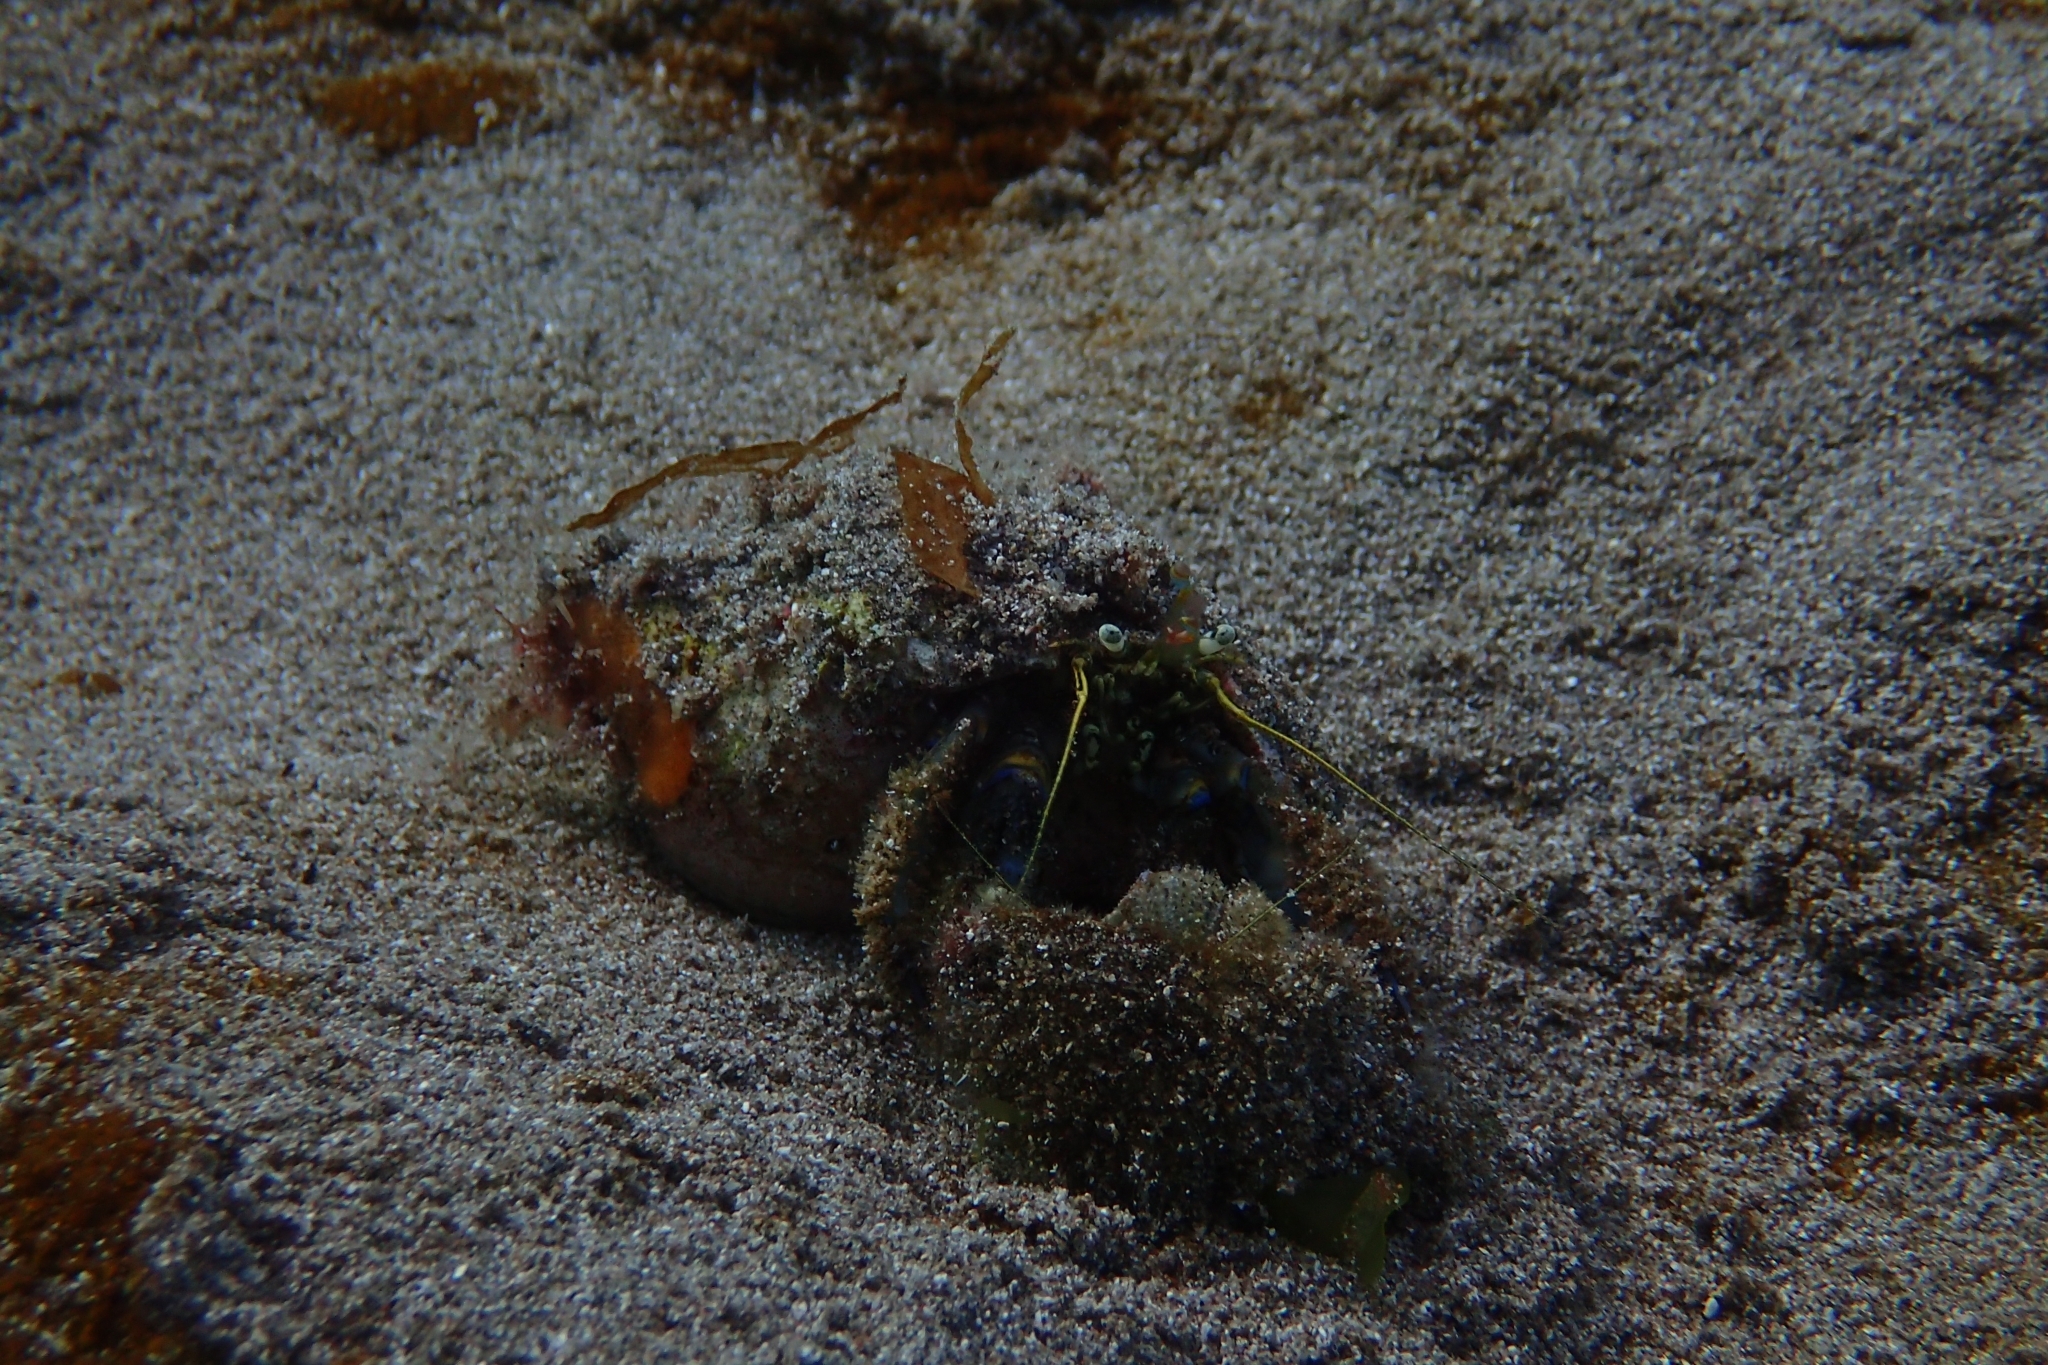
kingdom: Animalia
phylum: Arthropoda
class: Malacostraca
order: Decapoda
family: Paguridae
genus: Pagurus
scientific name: Pagurus novizealandiae
